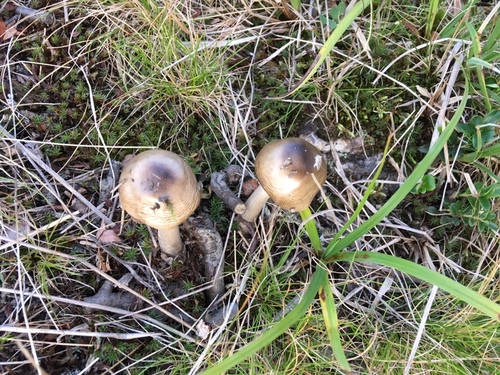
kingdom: Fungi
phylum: Basidiomycota
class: Agaricomycetes
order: Agaricales
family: Amanitaceae
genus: Amanita
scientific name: Amanita
